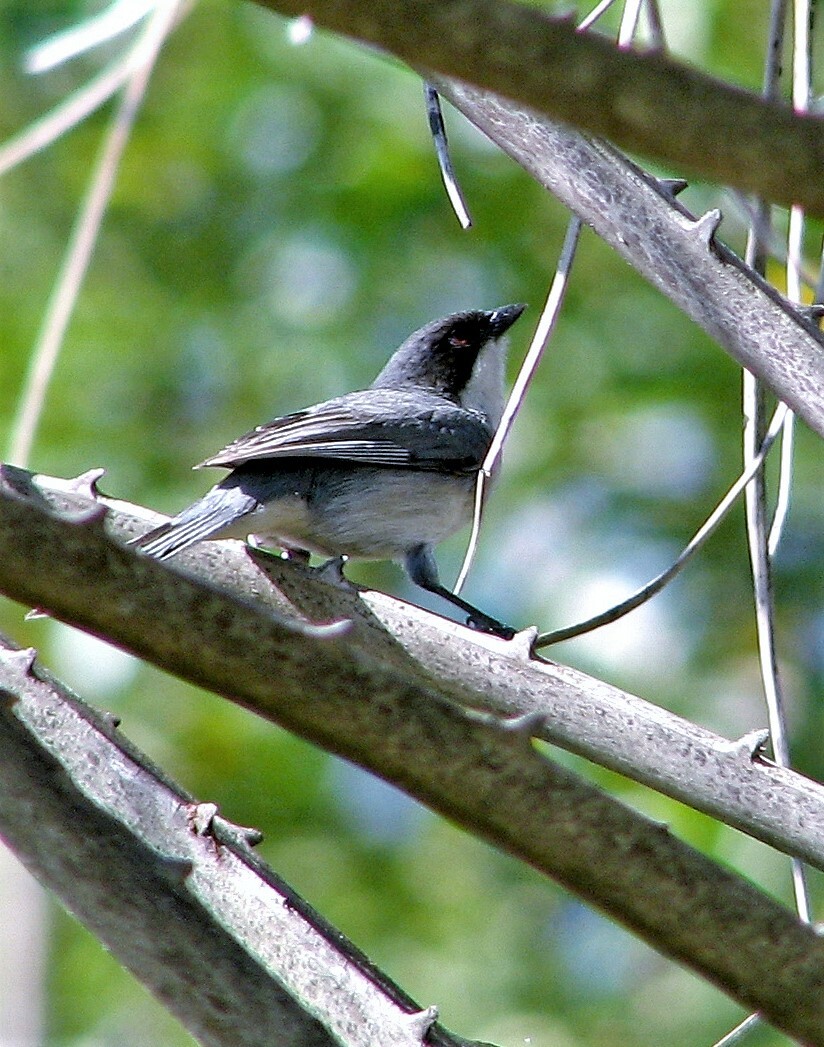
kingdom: Animalia
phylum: Chordata
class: Aves
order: Passeriformes
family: Thraupidae
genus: Microspingus
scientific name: Microspingus melanoleucus
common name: Black-capped warbling-finch
